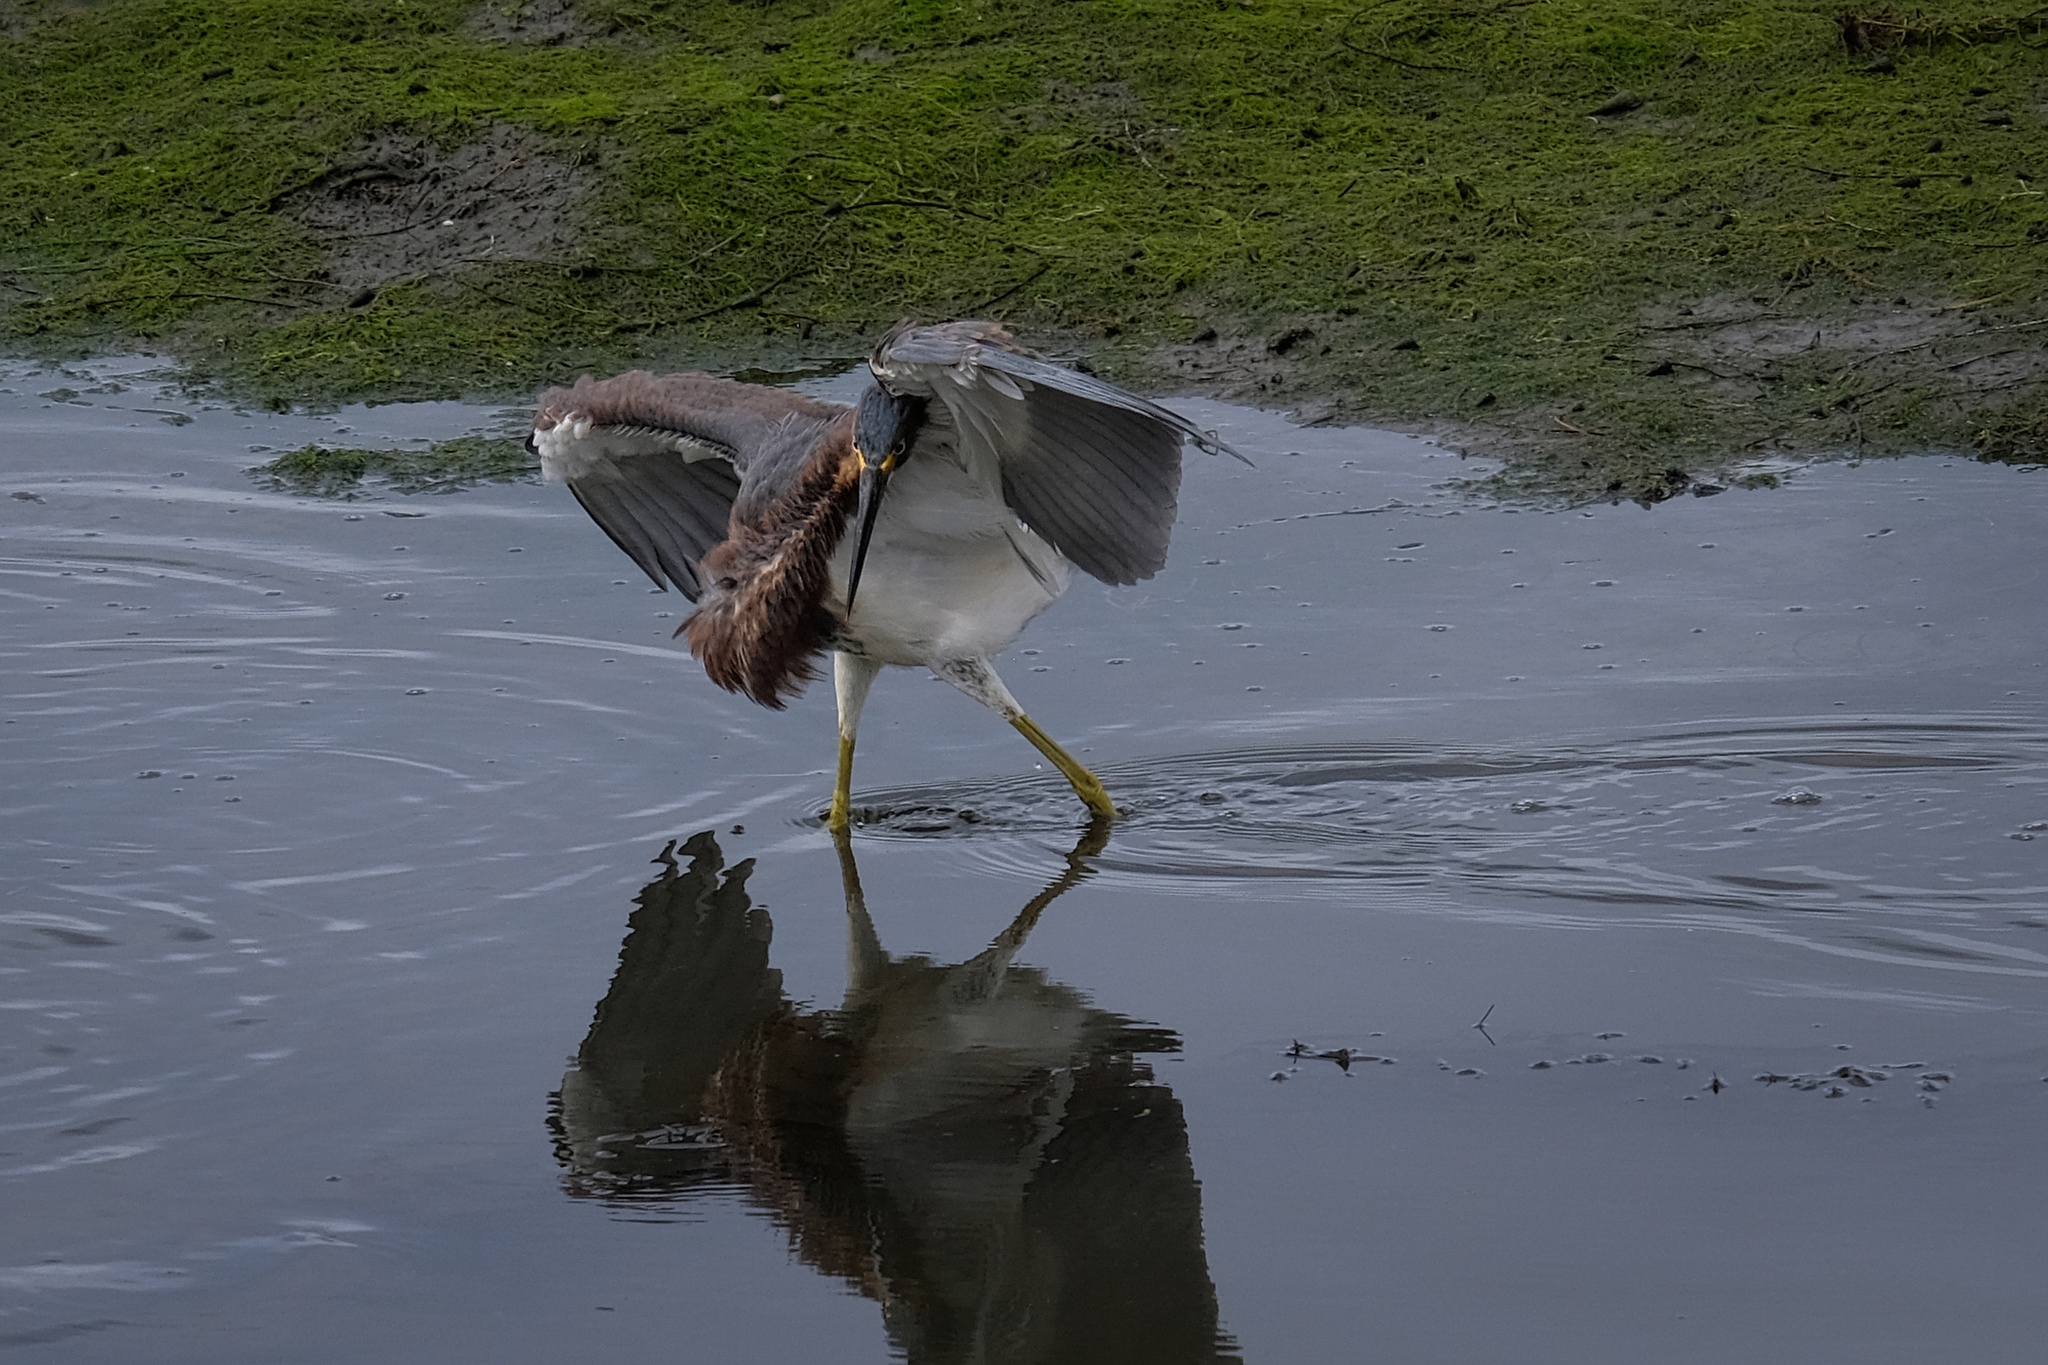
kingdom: Animalia
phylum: Chordata
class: Aves
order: Pelecaniformes
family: Ardeidae
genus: Egretta
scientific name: Egretta tricolor
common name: Tricolored heron
